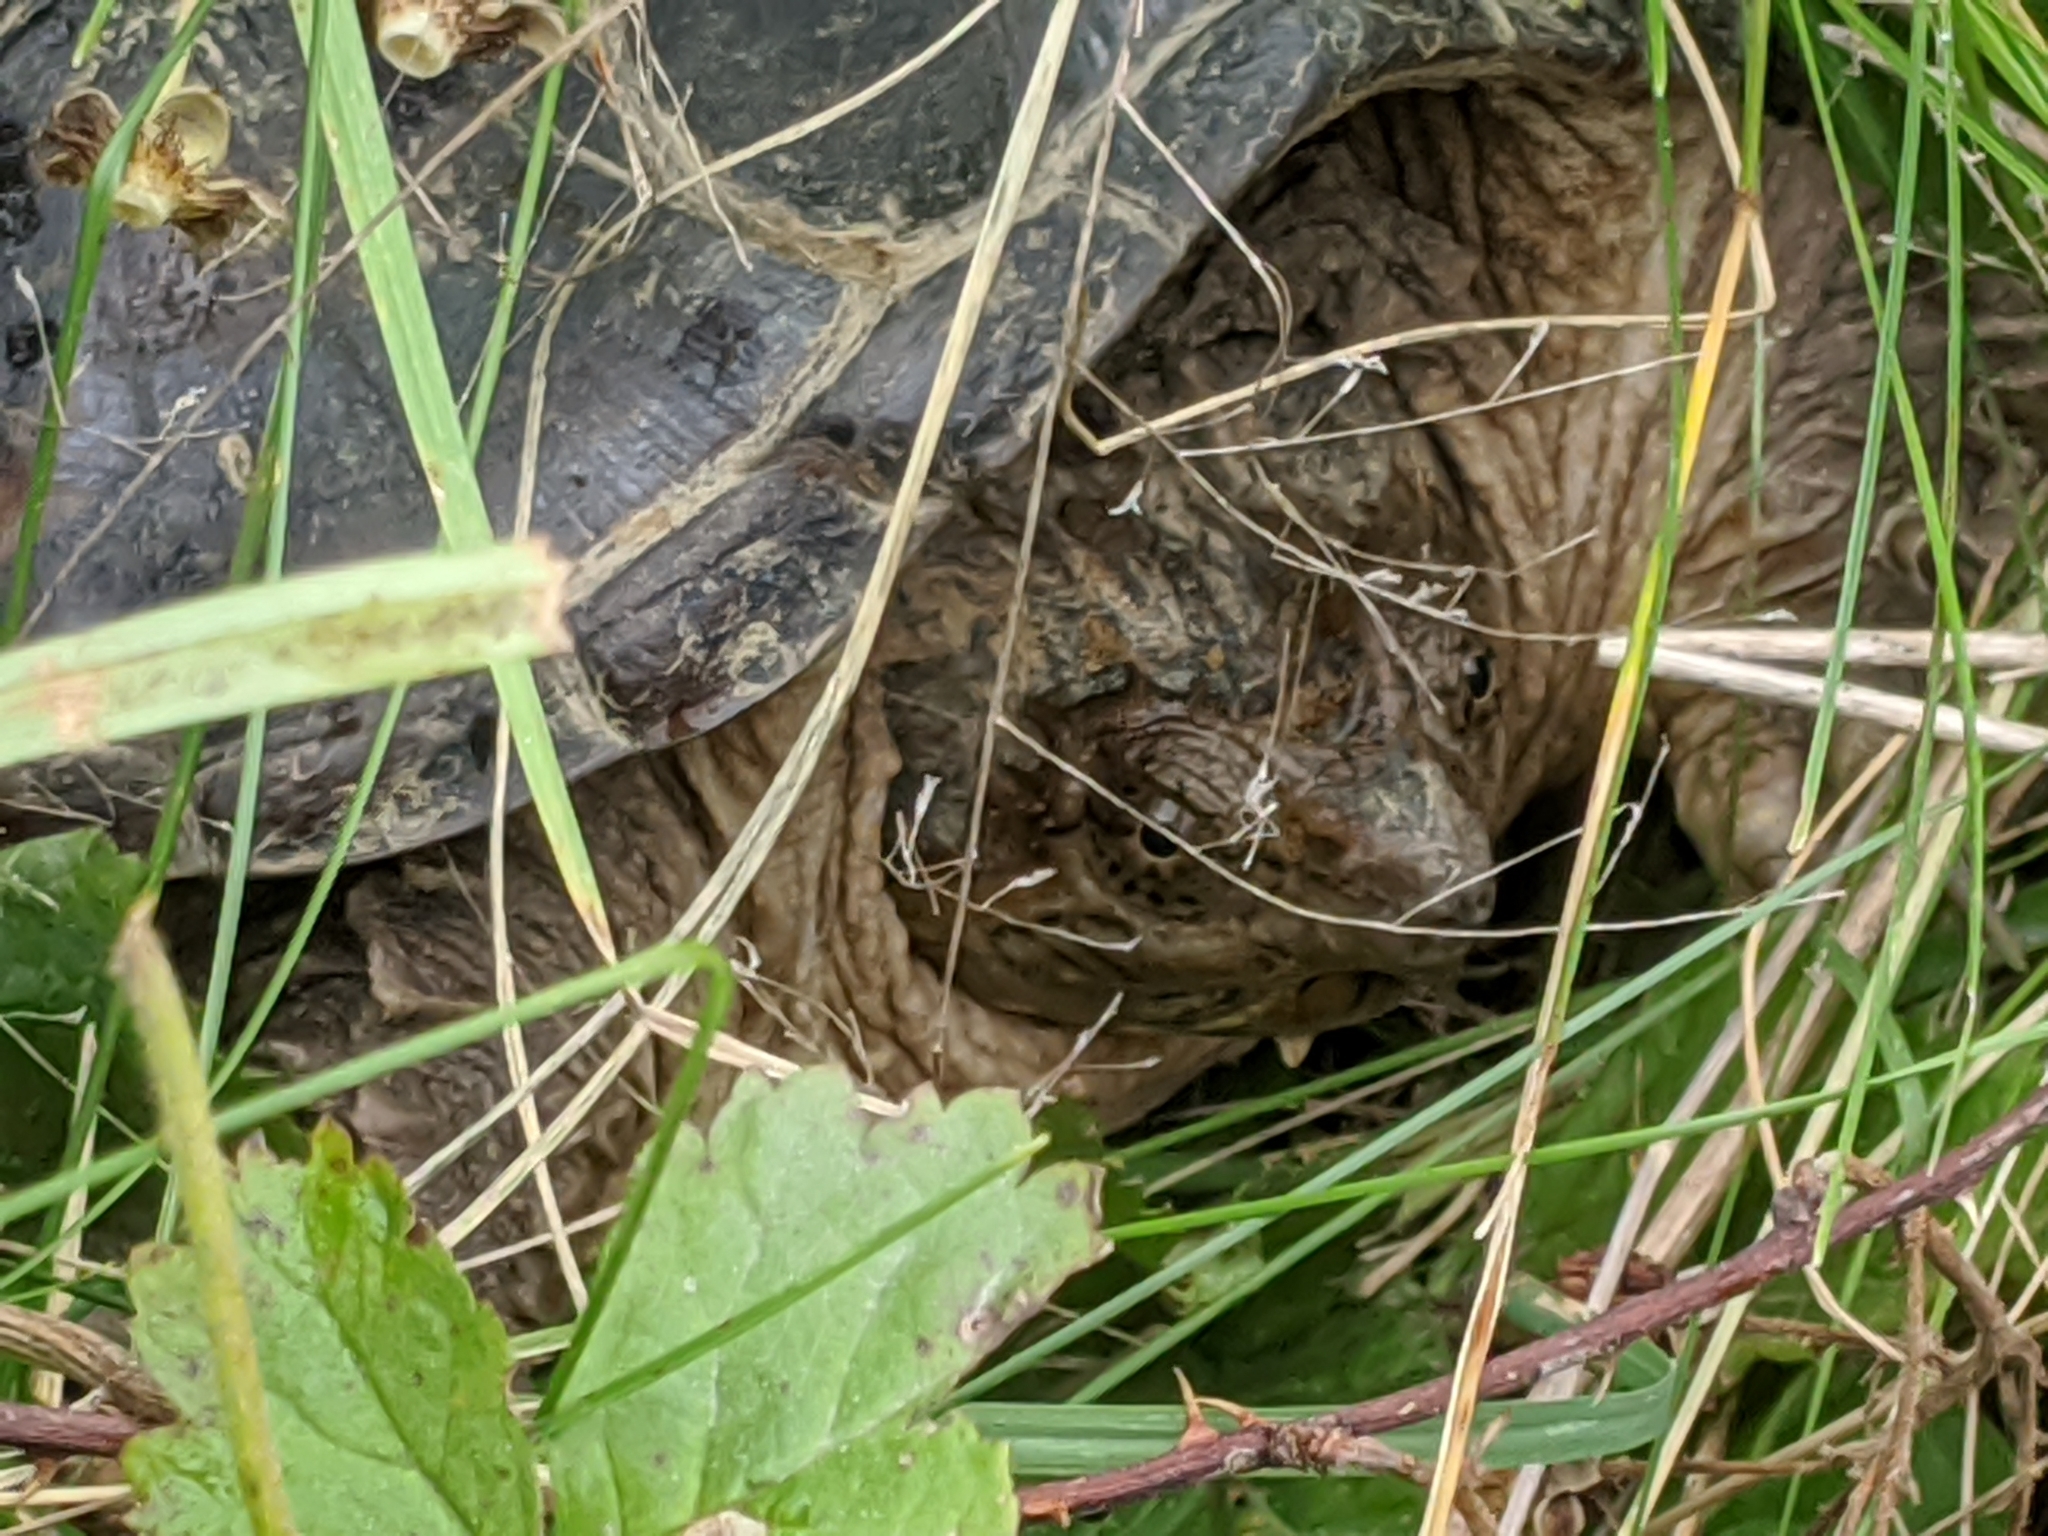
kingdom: Animalia
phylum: Chordata
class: Testudines
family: Chelydridae
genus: Chelydra
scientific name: Chelydra serpentina
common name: Common snapping turtle
